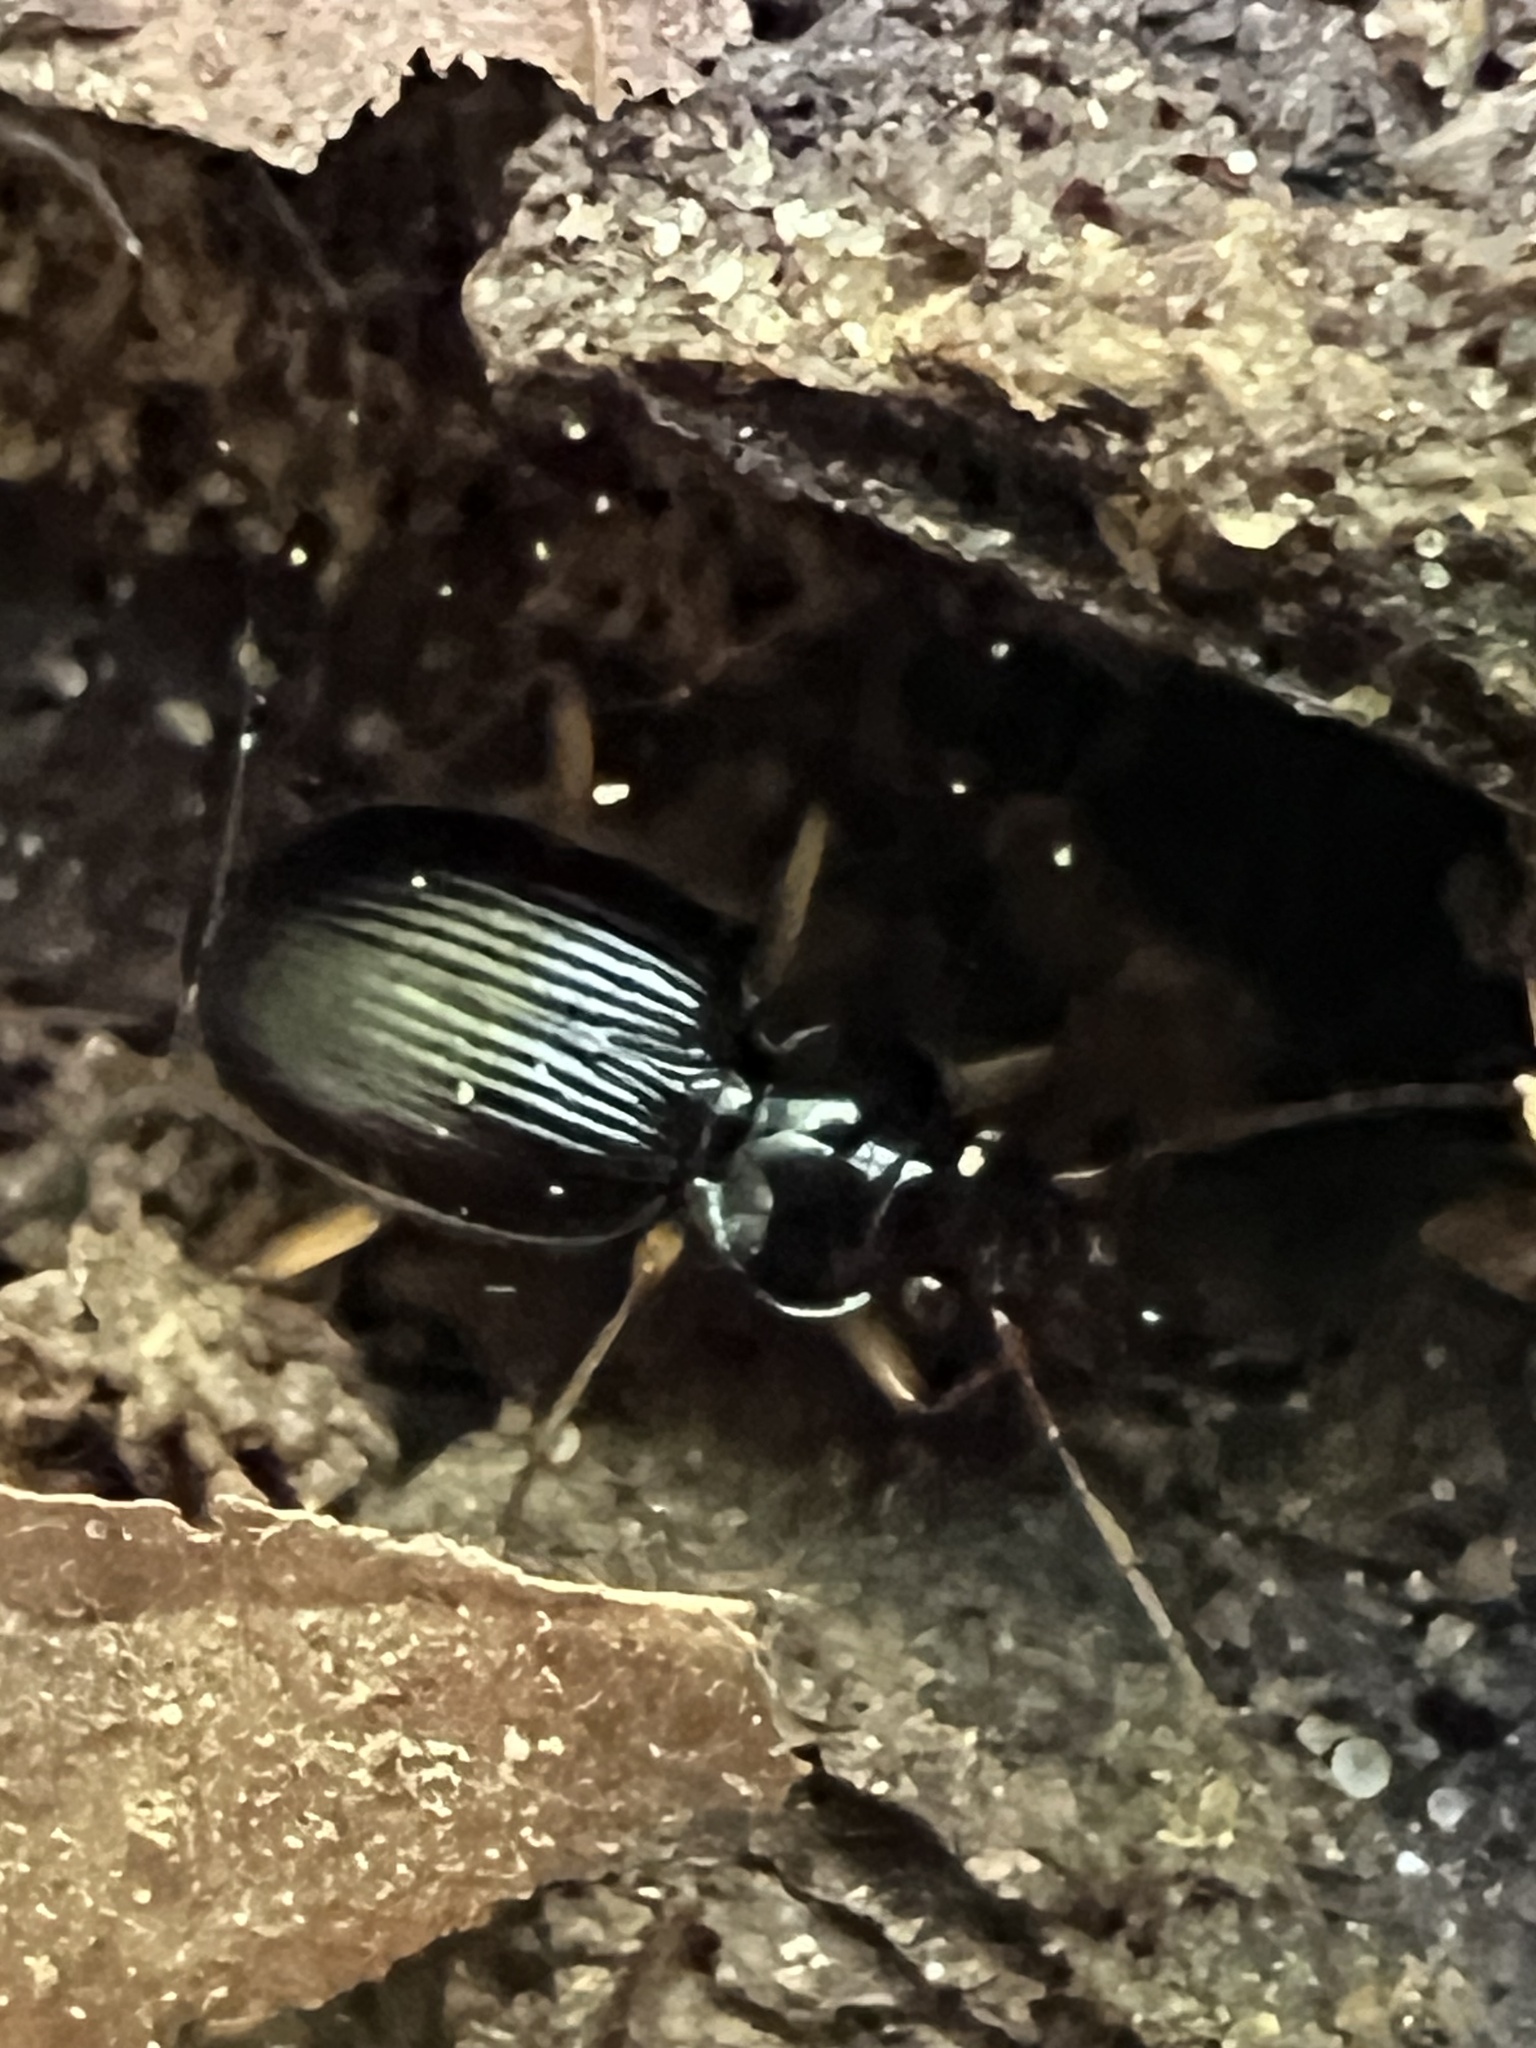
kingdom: Animalia
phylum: Arthropoda
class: Insecta
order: Coleoptera
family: Carabidae
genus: Nebria
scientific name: Nebria lacustris
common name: Lacustrine gazelle beetle
